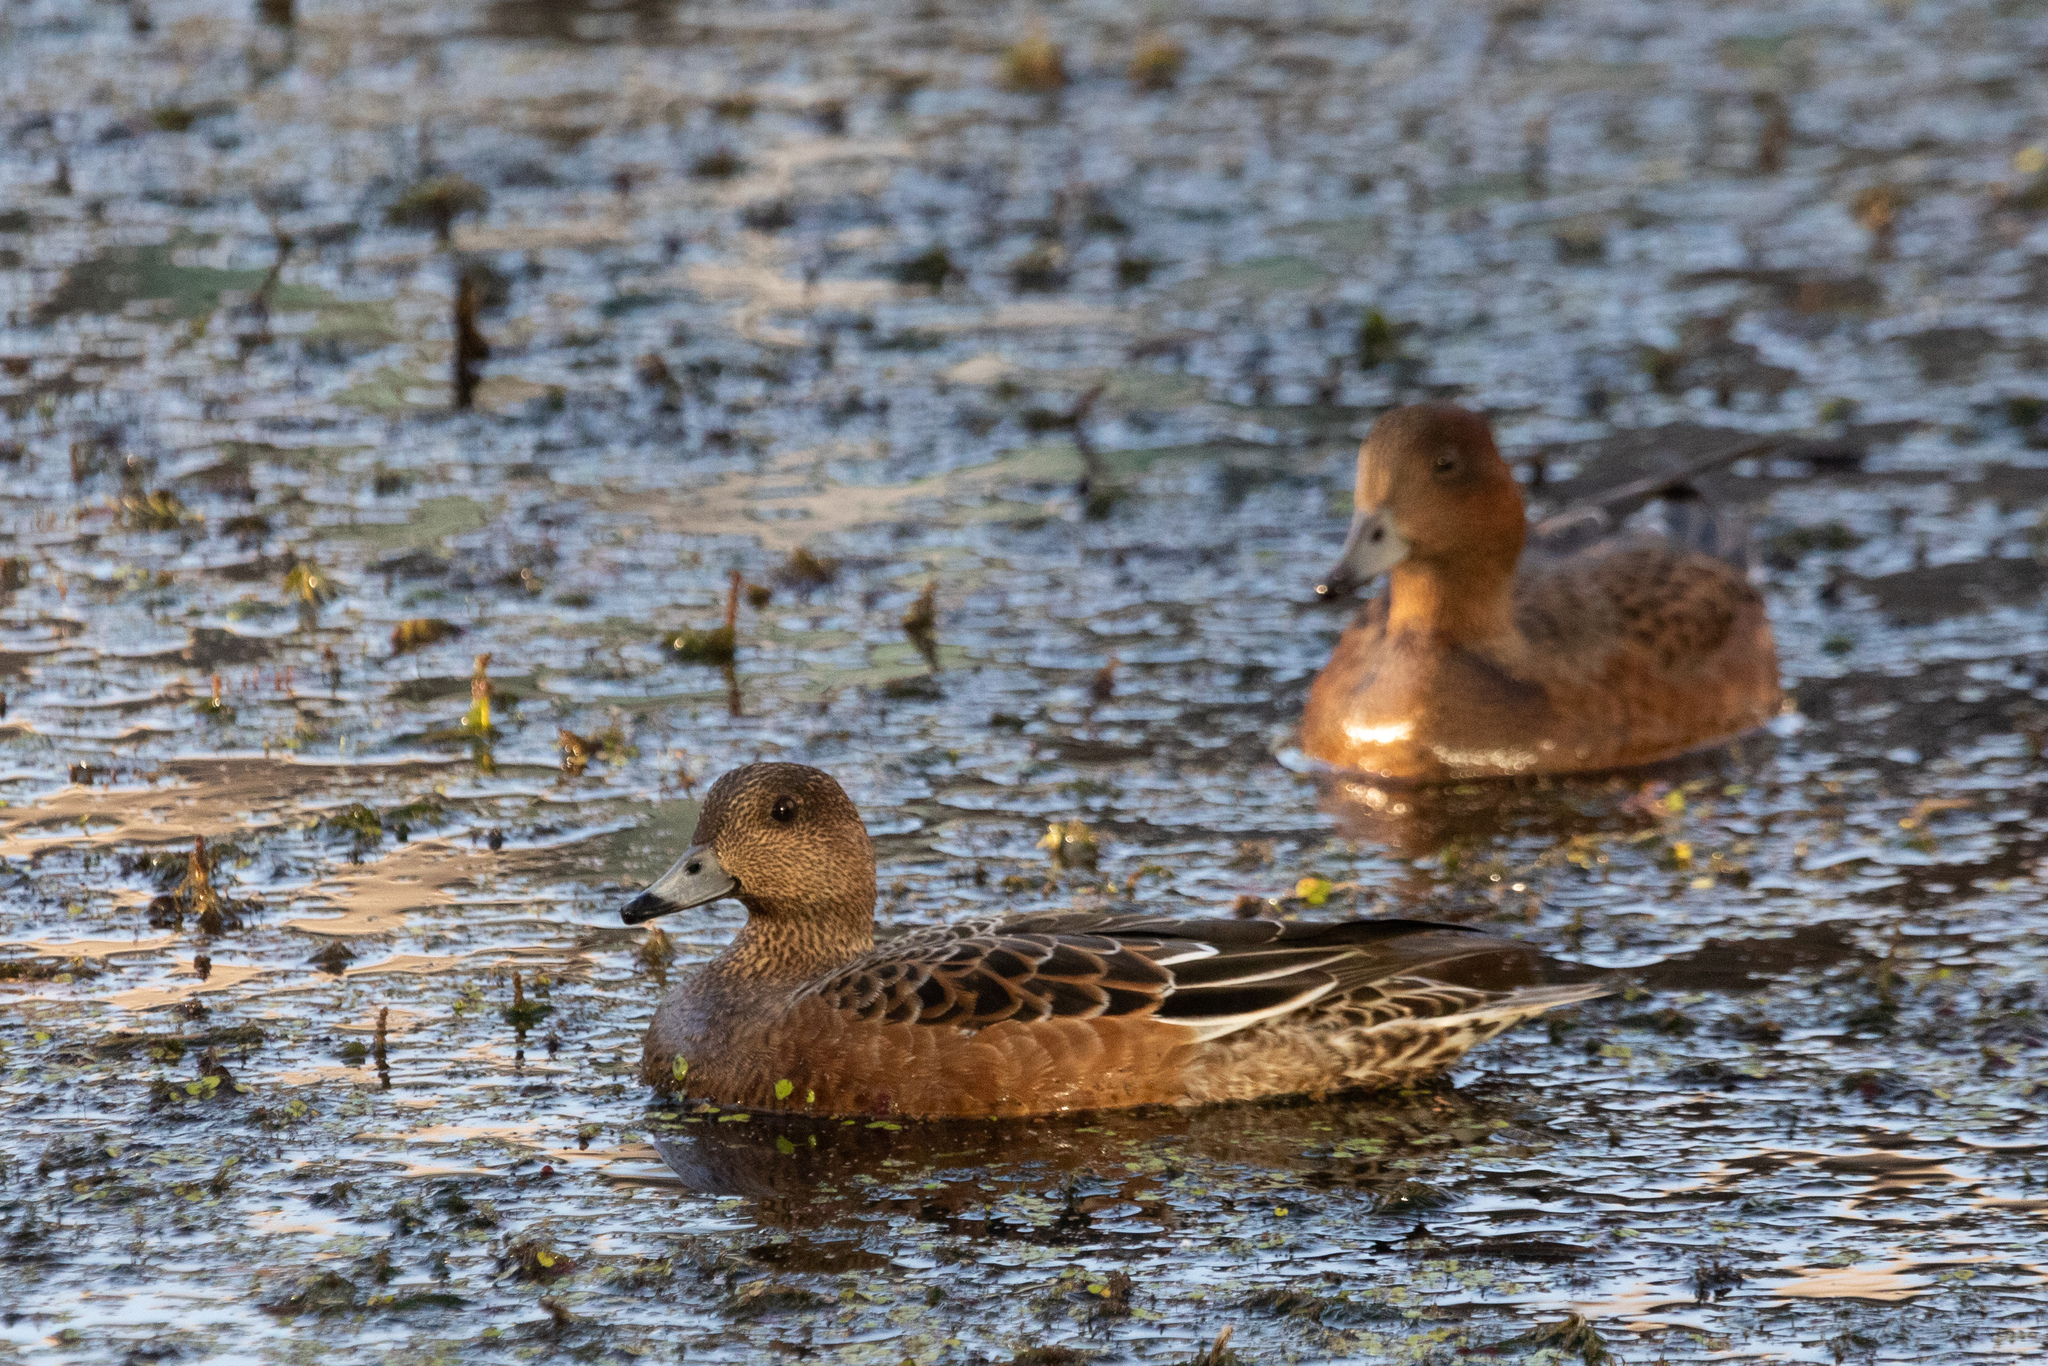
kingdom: Animalia
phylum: Chordata
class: Aves
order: Anseriformes
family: Anatidae
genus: Mareca
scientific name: Mareca penelope
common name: Eurasian wigeon
